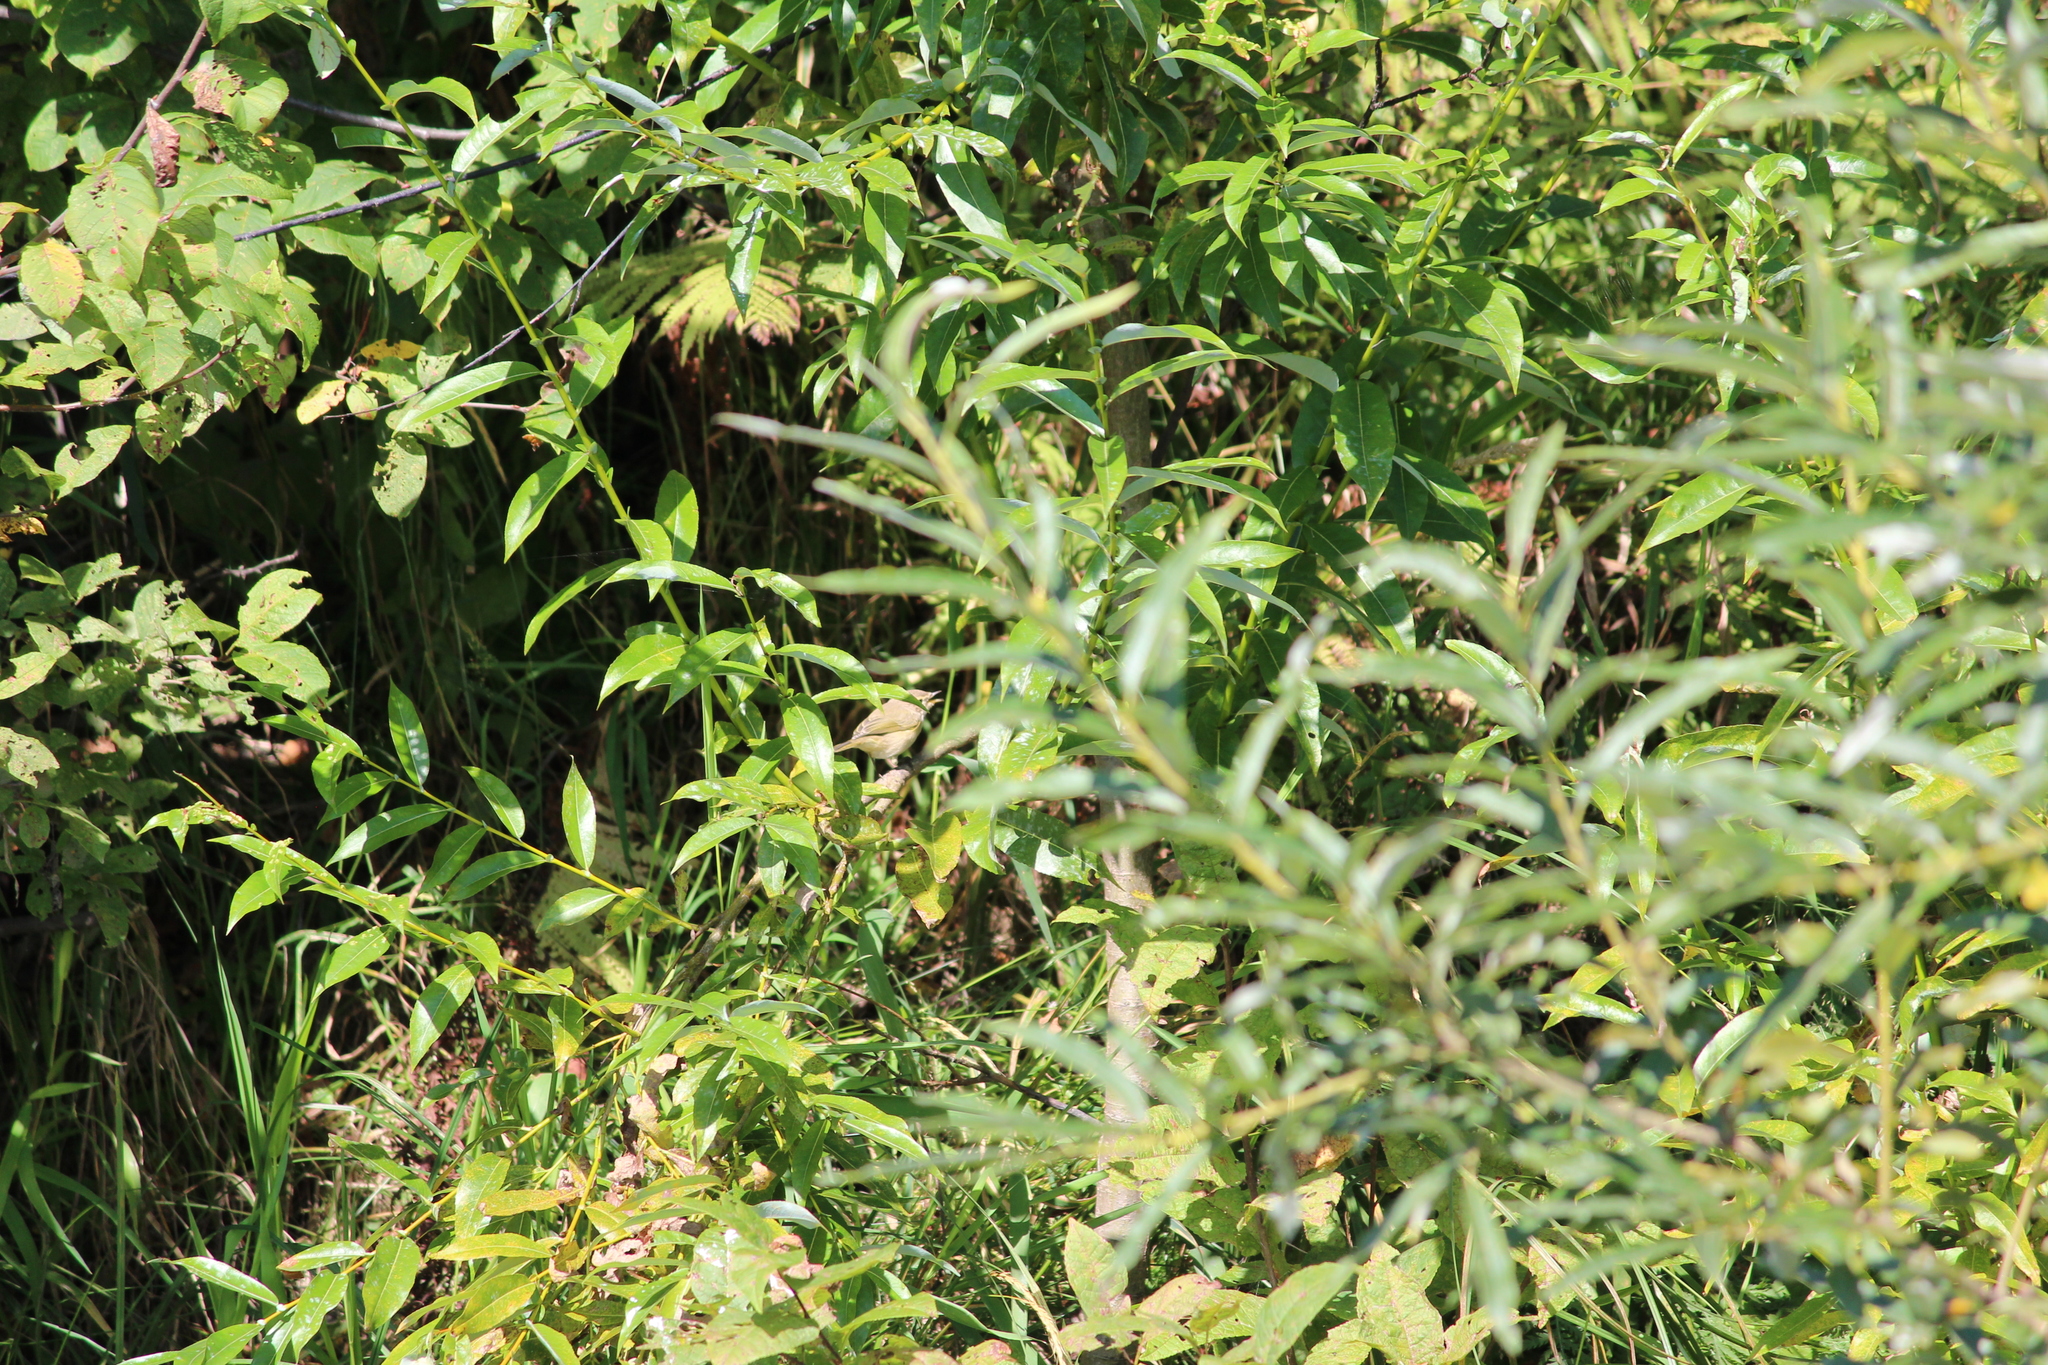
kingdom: Animalia
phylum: Chordata
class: Aves
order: Passeriformes
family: Phylloscopidae
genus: Phylloscopus
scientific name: Phylloscopus collybita
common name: Common chiffchaff
